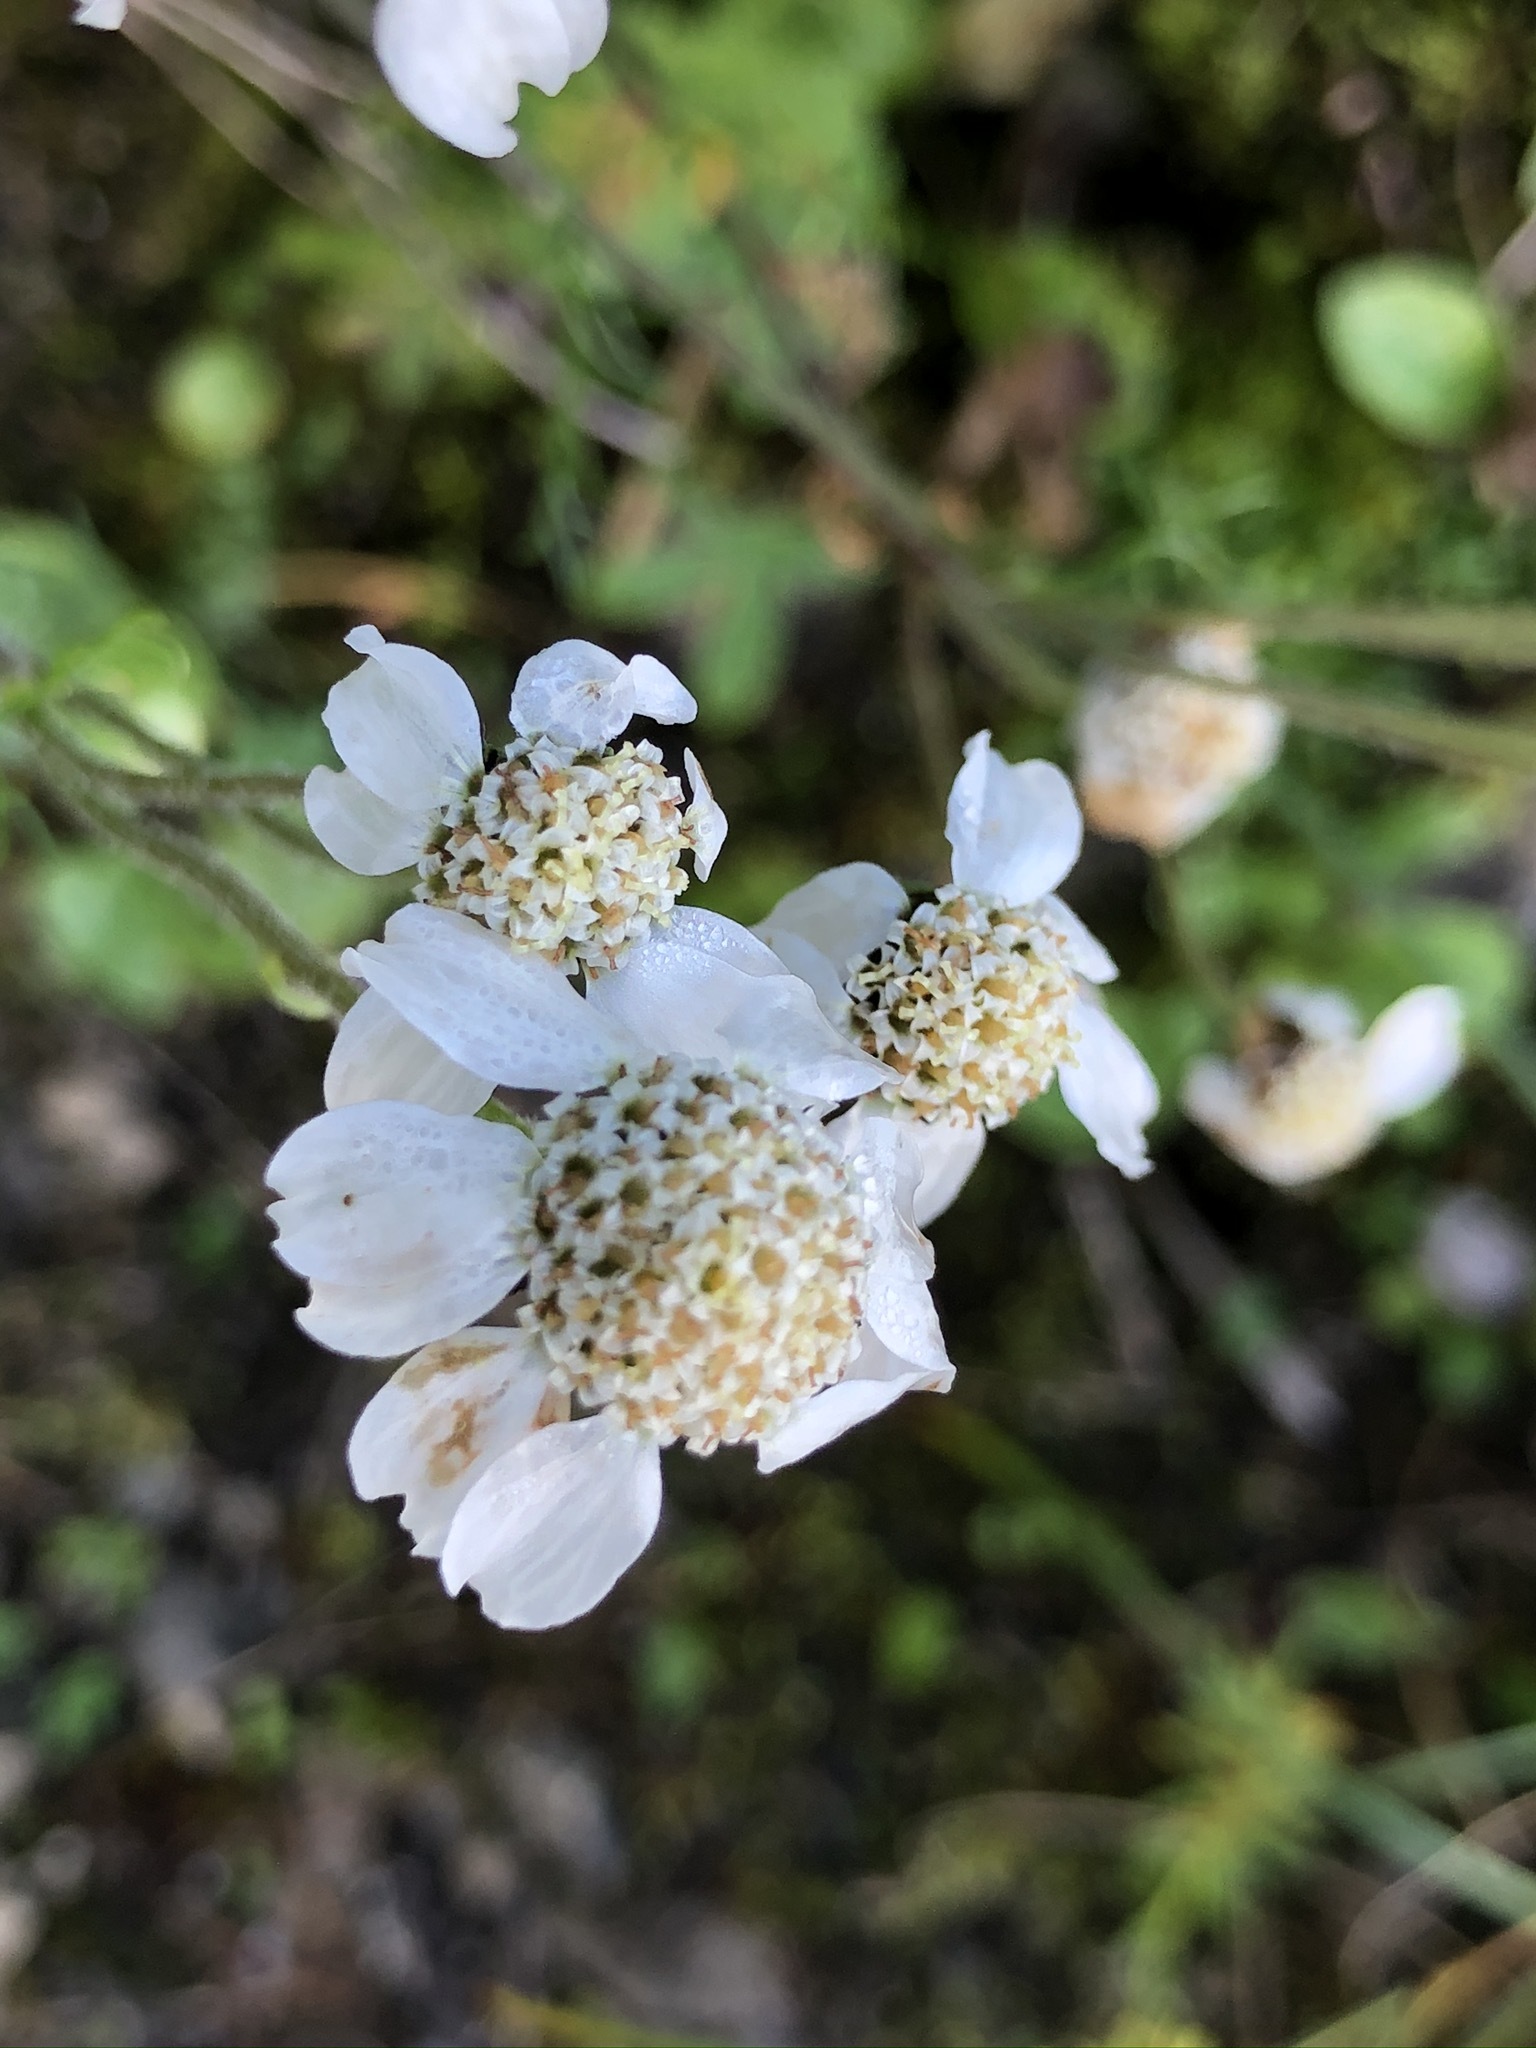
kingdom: Plantae
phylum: Tracheophyta
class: Magnoliopsida
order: Asterales
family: Asteraceae
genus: Achillea
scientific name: Achillea atrata
